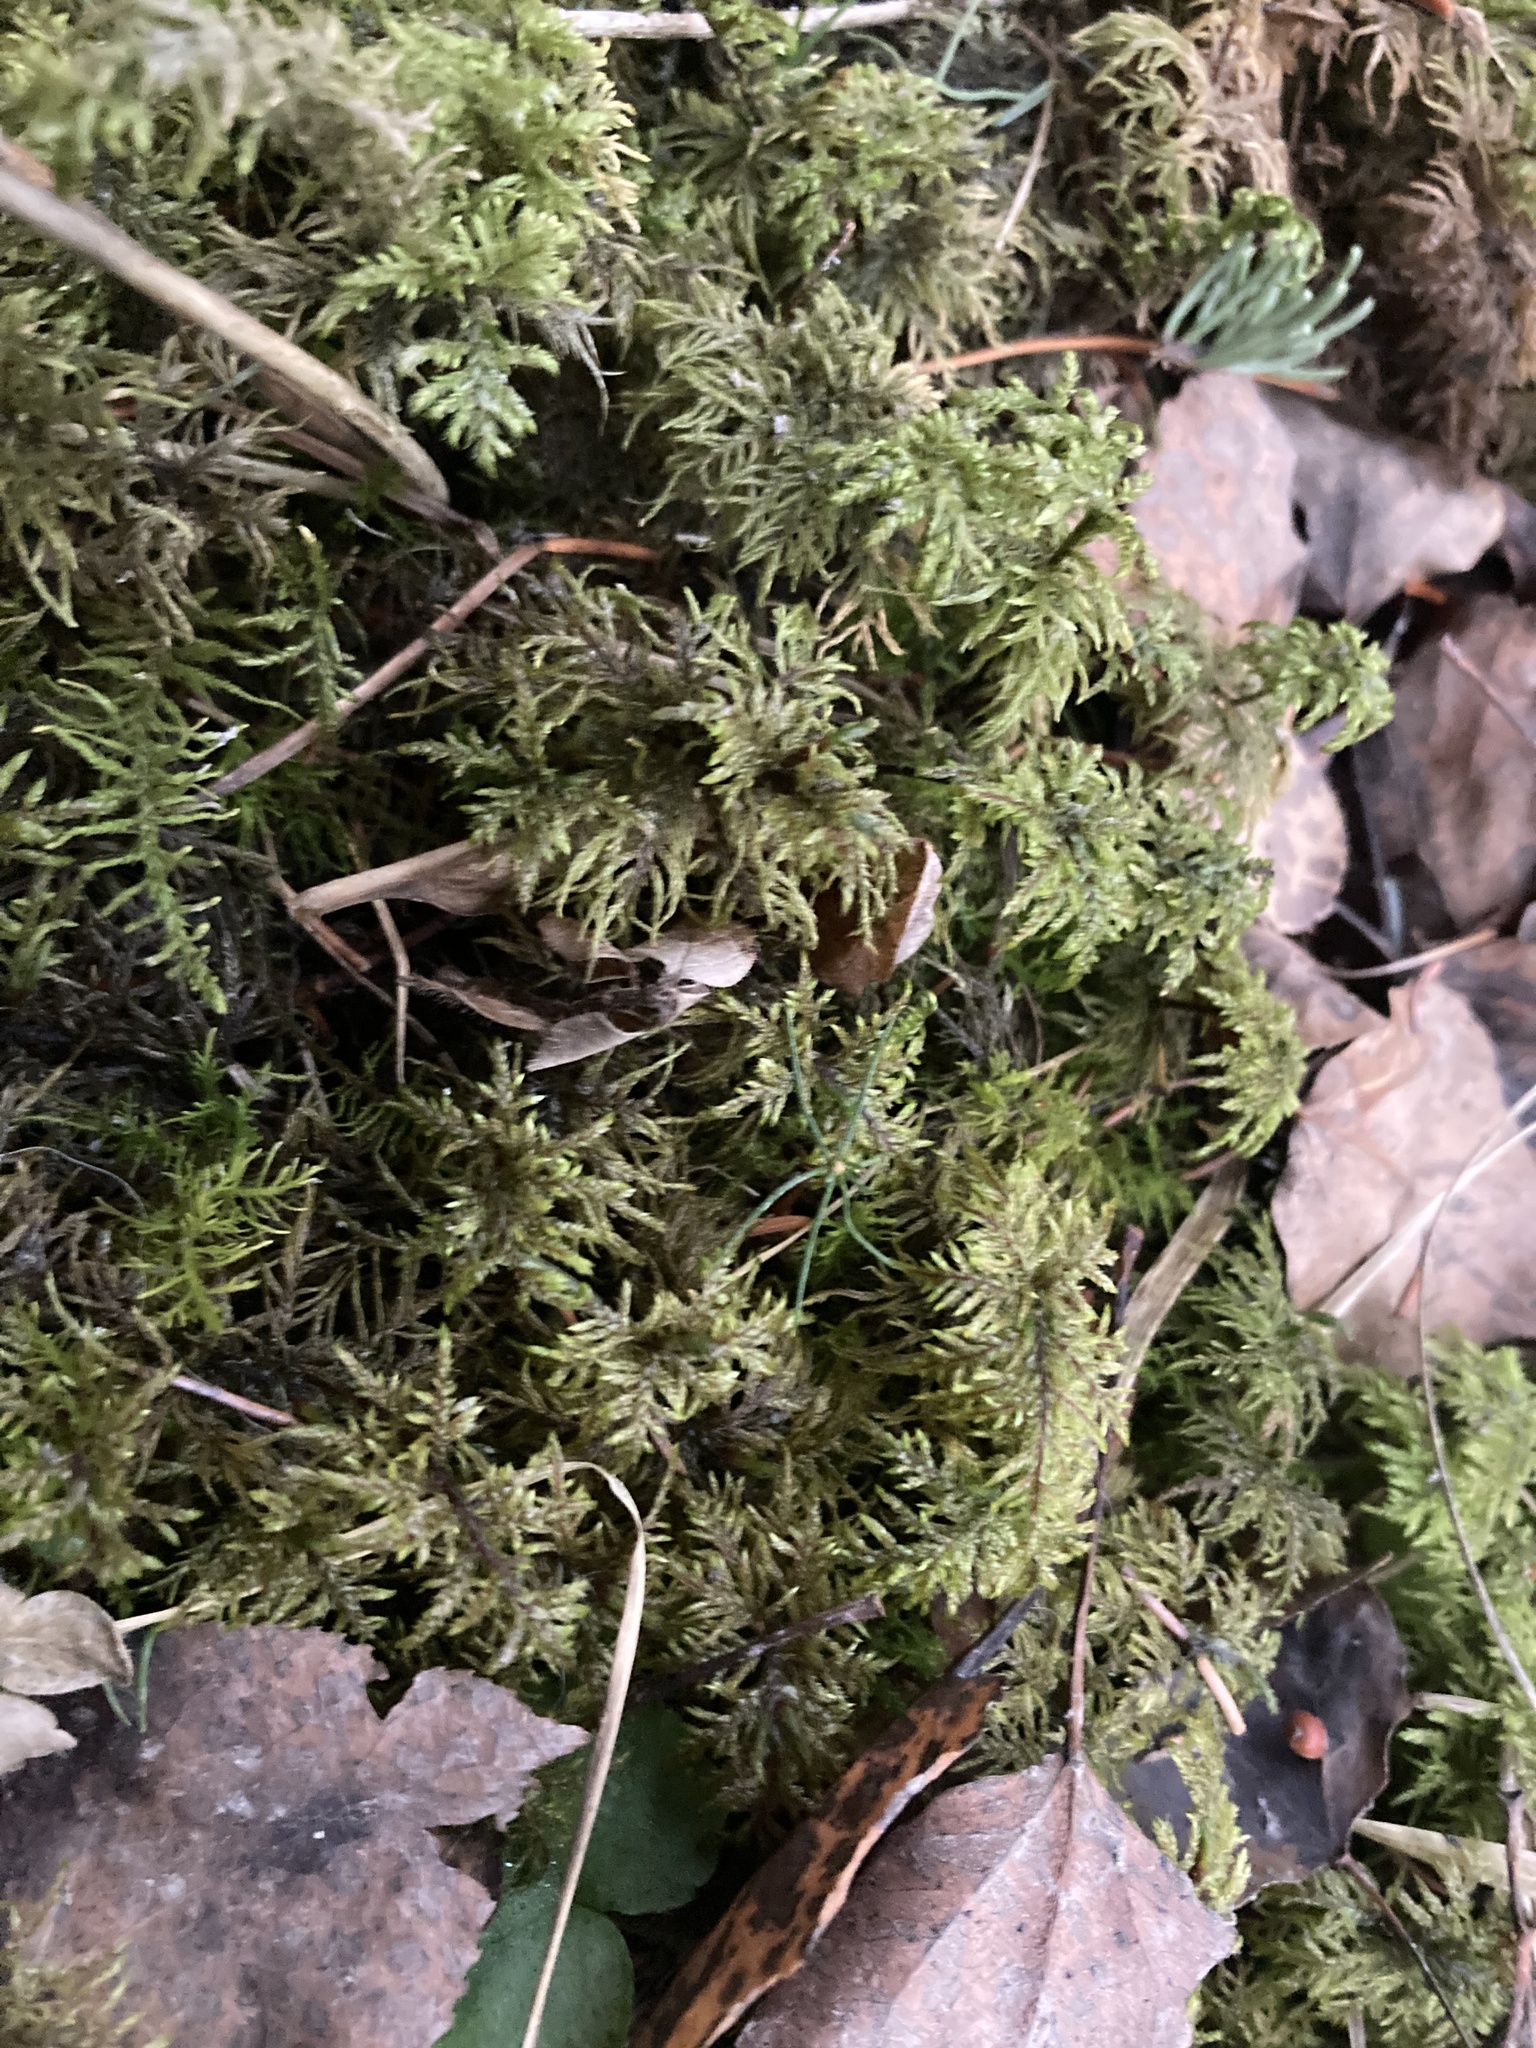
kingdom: Plantae
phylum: Bryophyta
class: Bryopsida
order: Hypnales
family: Hylocomiaceae
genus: Hylocomium
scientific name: Hylocomium splendens
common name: Stairstep moss
